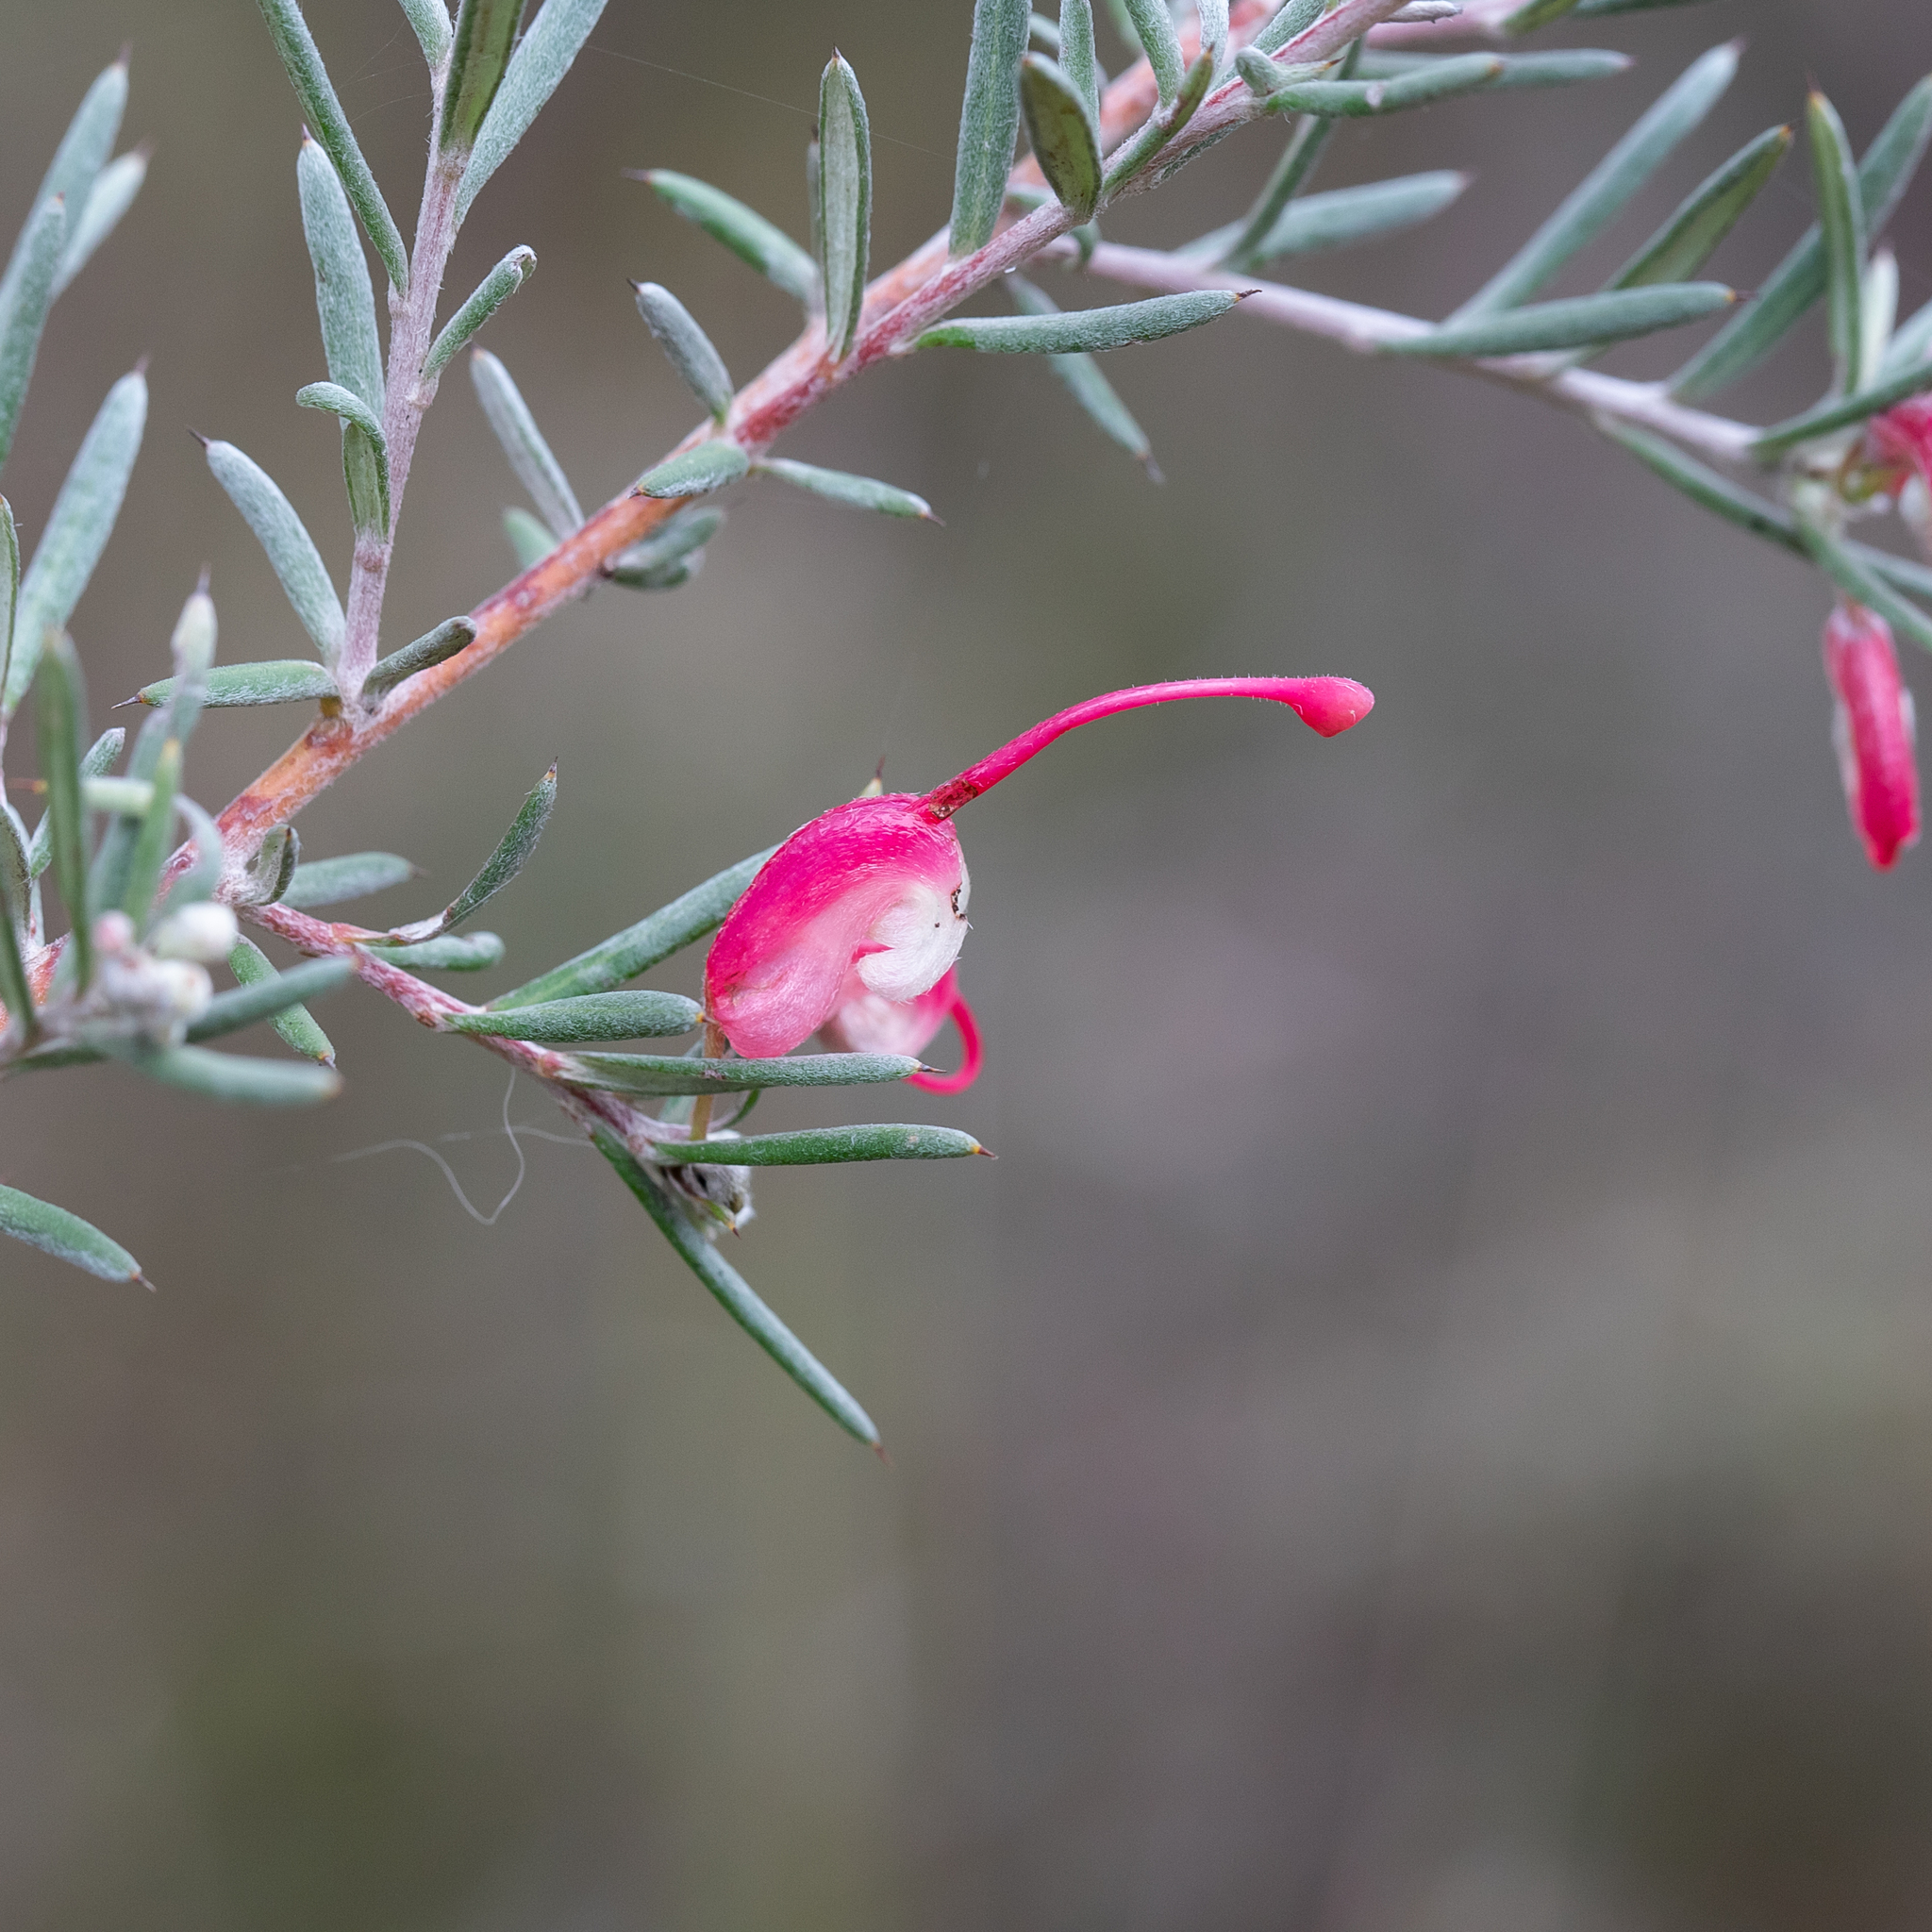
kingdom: Plantae
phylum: Tracheophyta
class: Magnoliopsida
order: Proteales
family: Proteaceae
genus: Grevillea
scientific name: Grevillea lavandulacea
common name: Lavender grevillea
